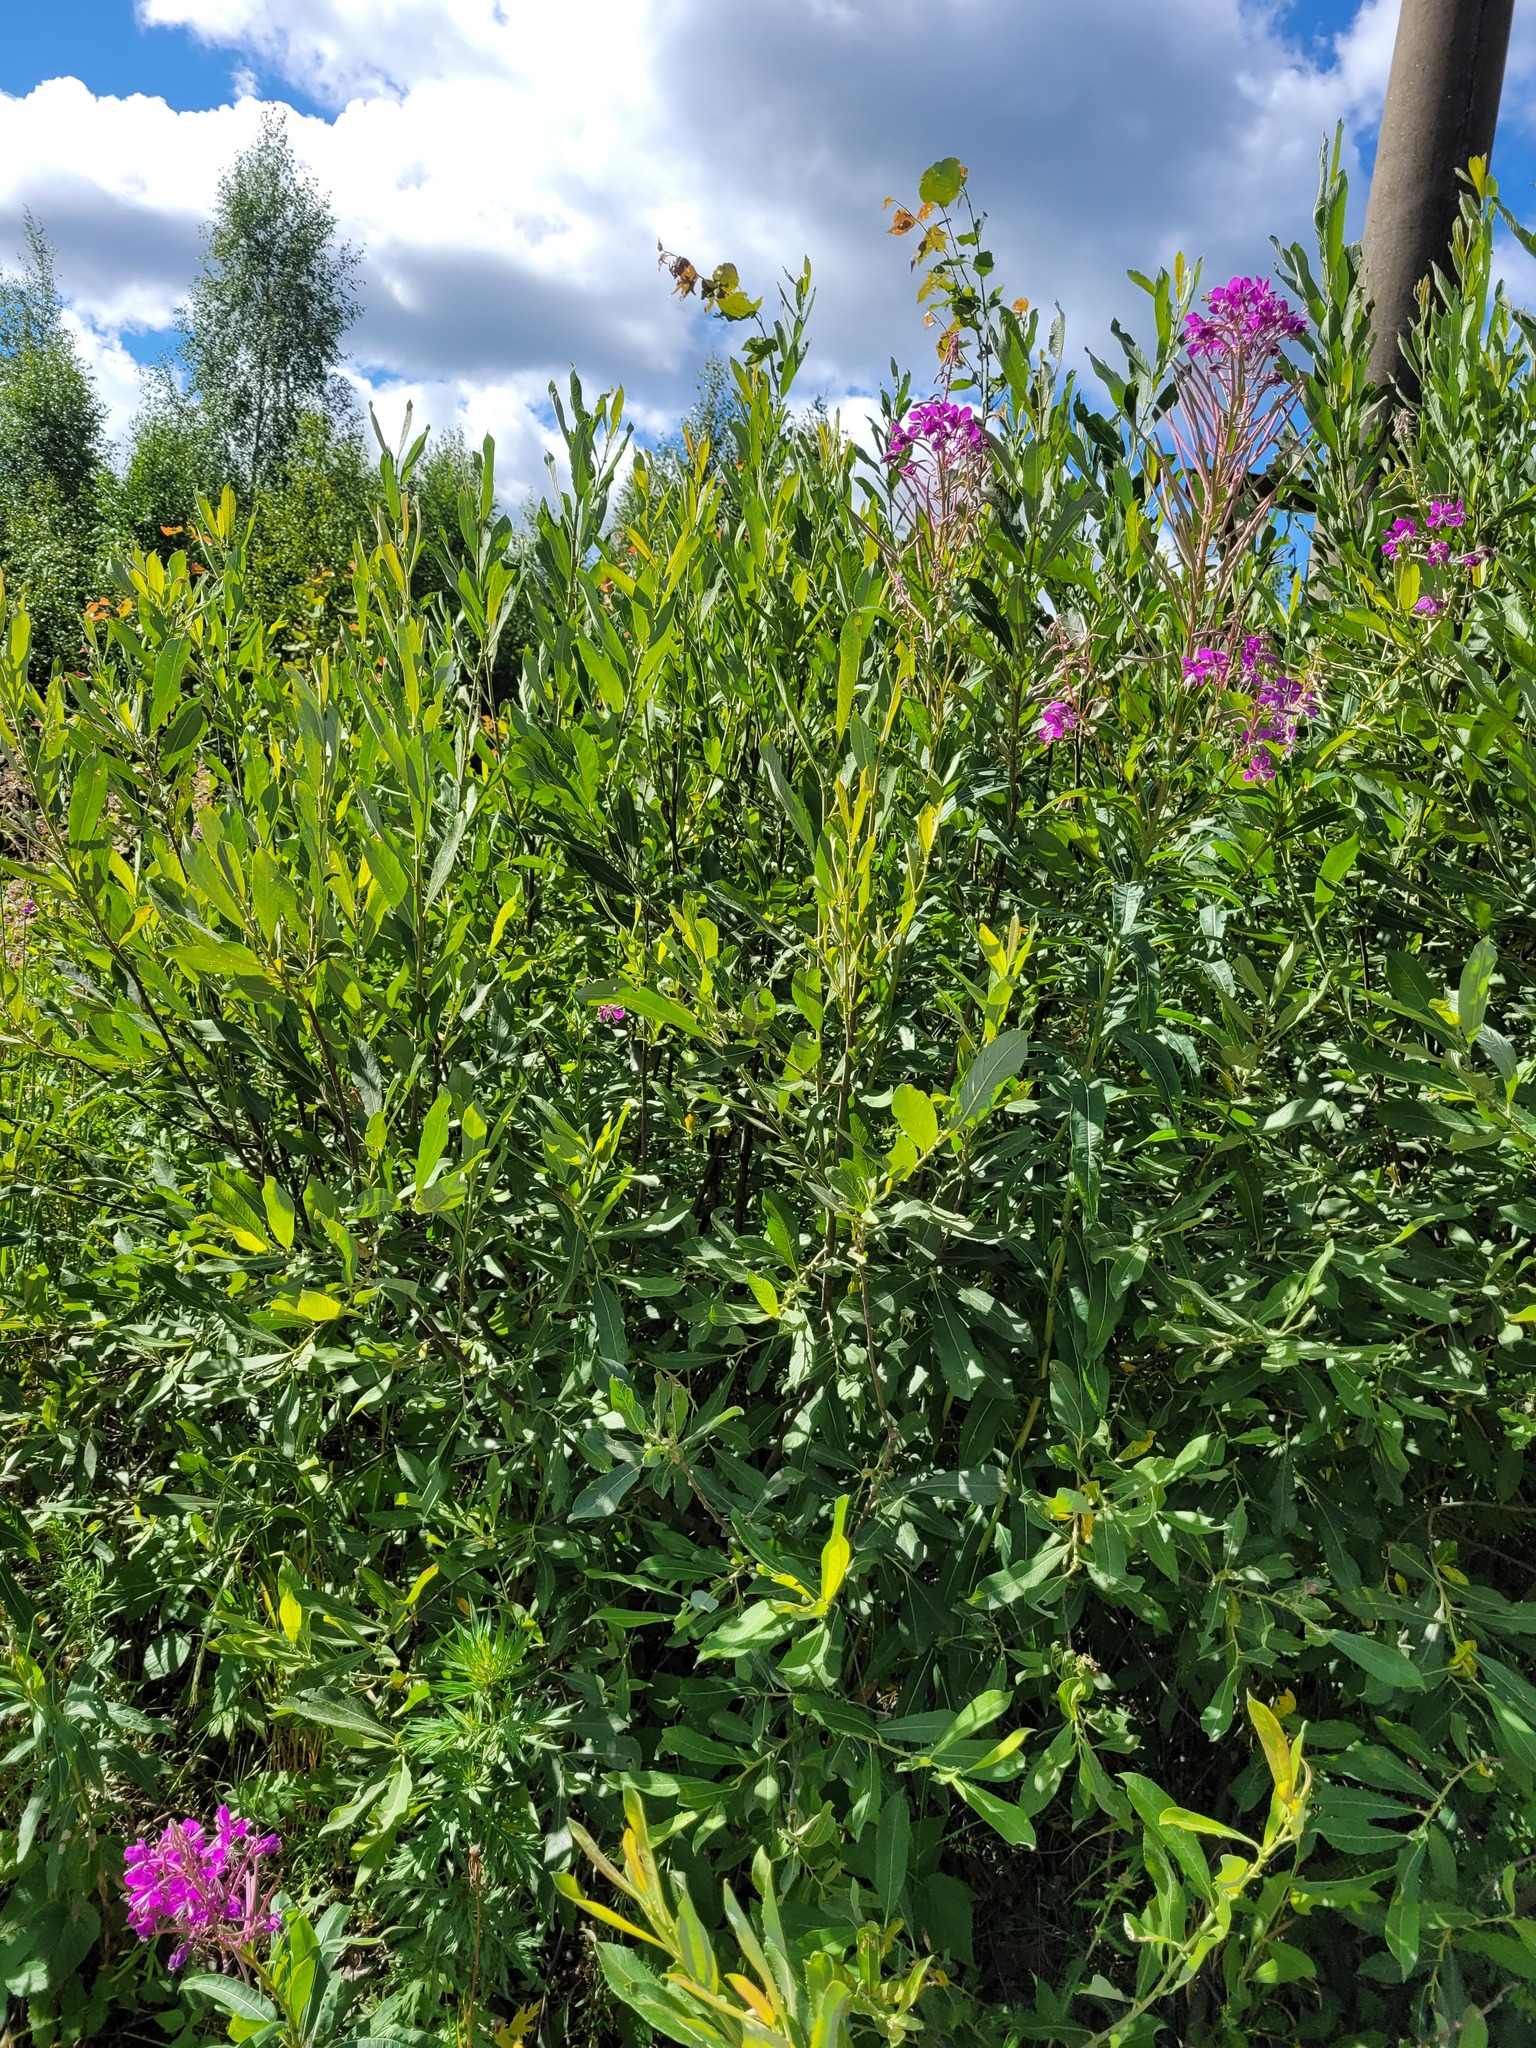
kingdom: Plantae
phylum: Tracheophyta
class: Magnoliopsida
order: Malpighiales
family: Salicaceae
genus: Salix
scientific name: Salix cinerea
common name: Common sallow
